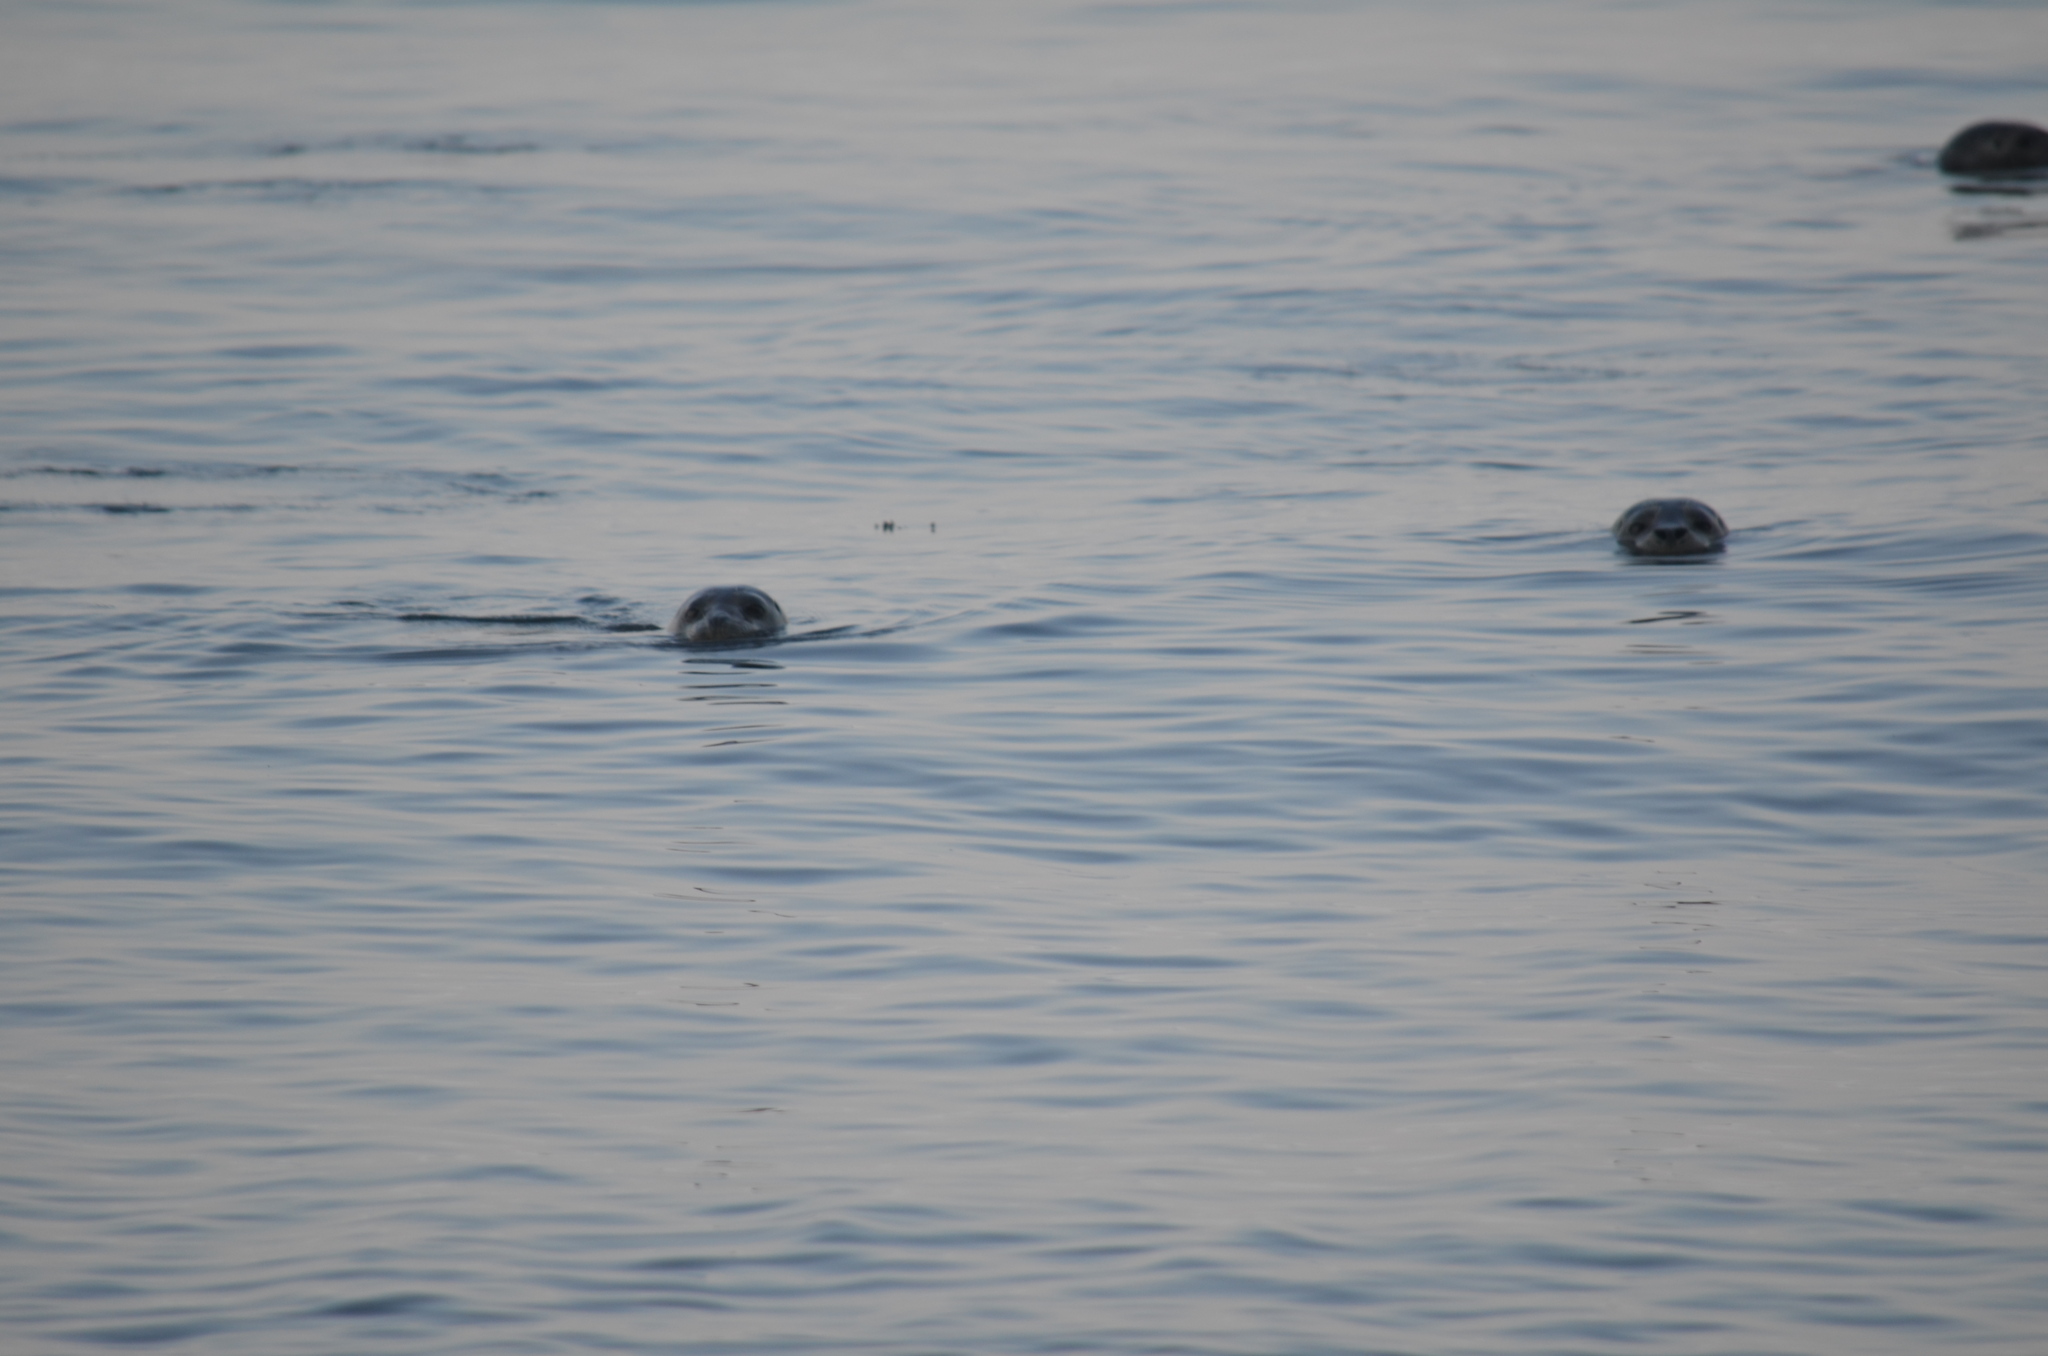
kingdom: Animalia
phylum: Chordata
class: Mammalia
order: Carnivora
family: Phocidae
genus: Phoca
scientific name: Phoca vitulina
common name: Harbor seal
